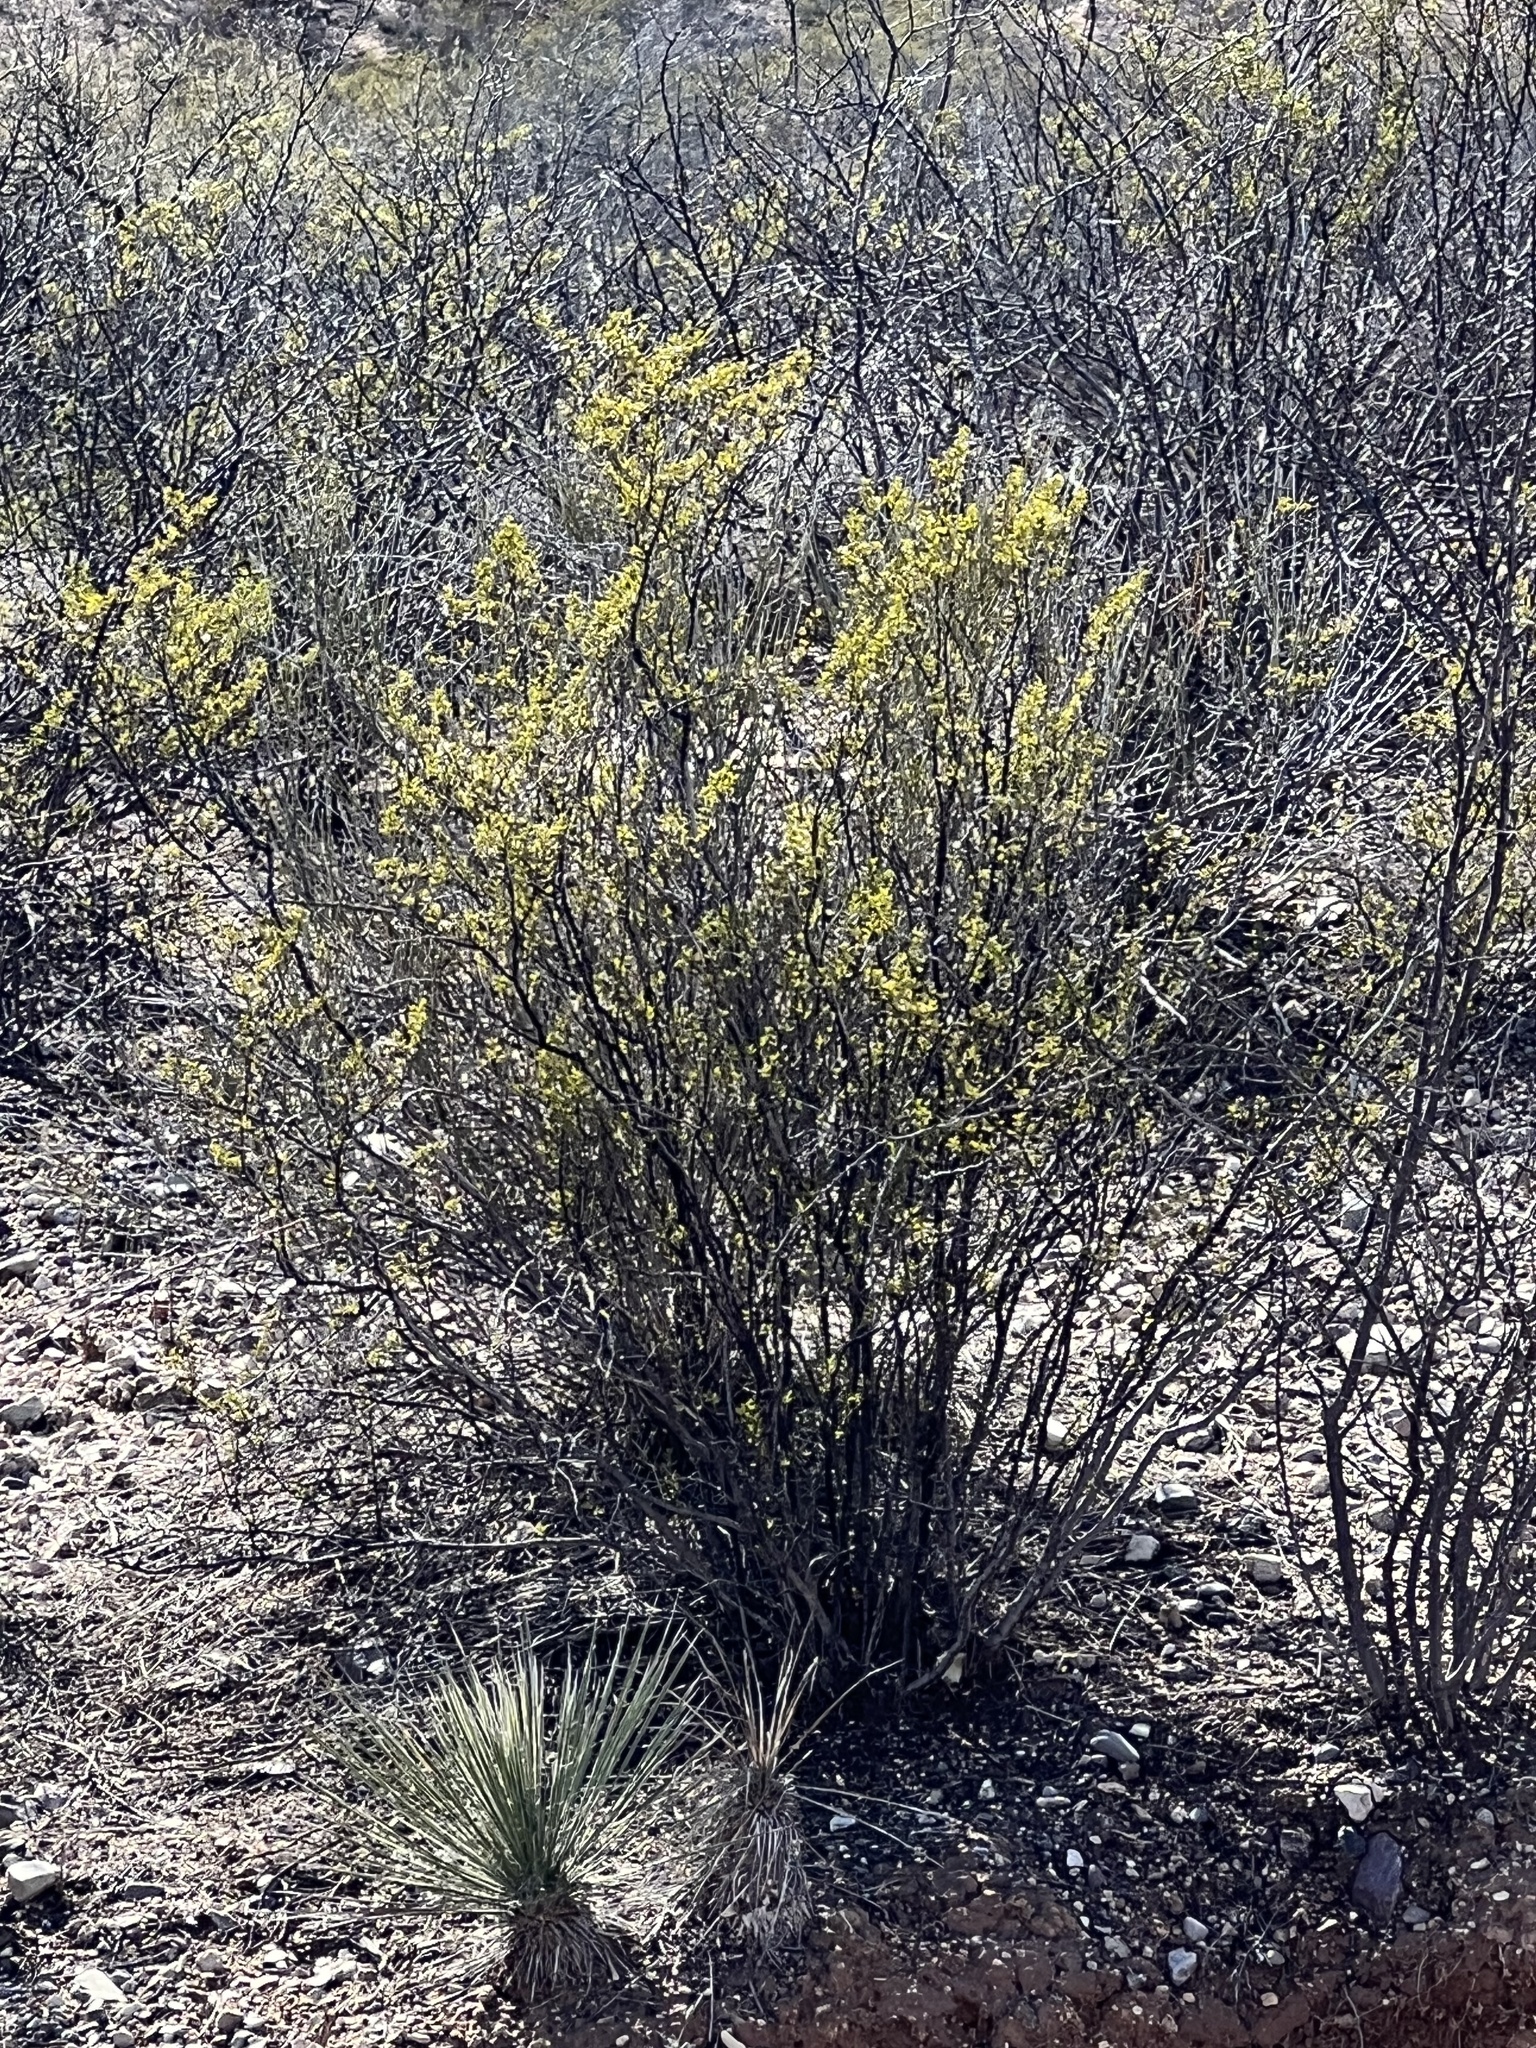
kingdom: Plantae
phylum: Tracheophyta
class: Magnoliopsida
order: Zygophyllales
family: Zygophyllaceae
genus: Larrea
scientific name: Larrea tridentata
